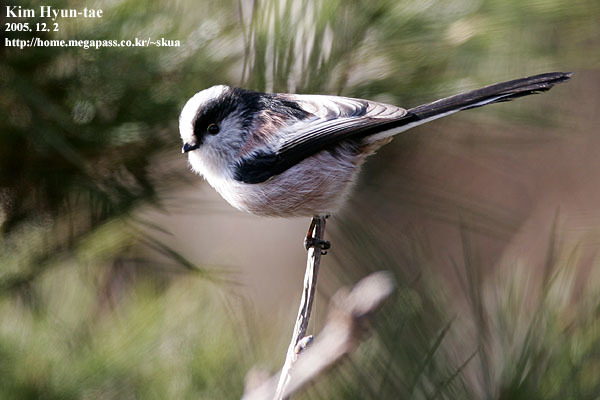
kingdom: Animalia
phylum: Chordata
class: Aves
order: Passeriformes
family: Aegithalidae
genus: Aegithalos
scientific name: Aegithalos caudatus
